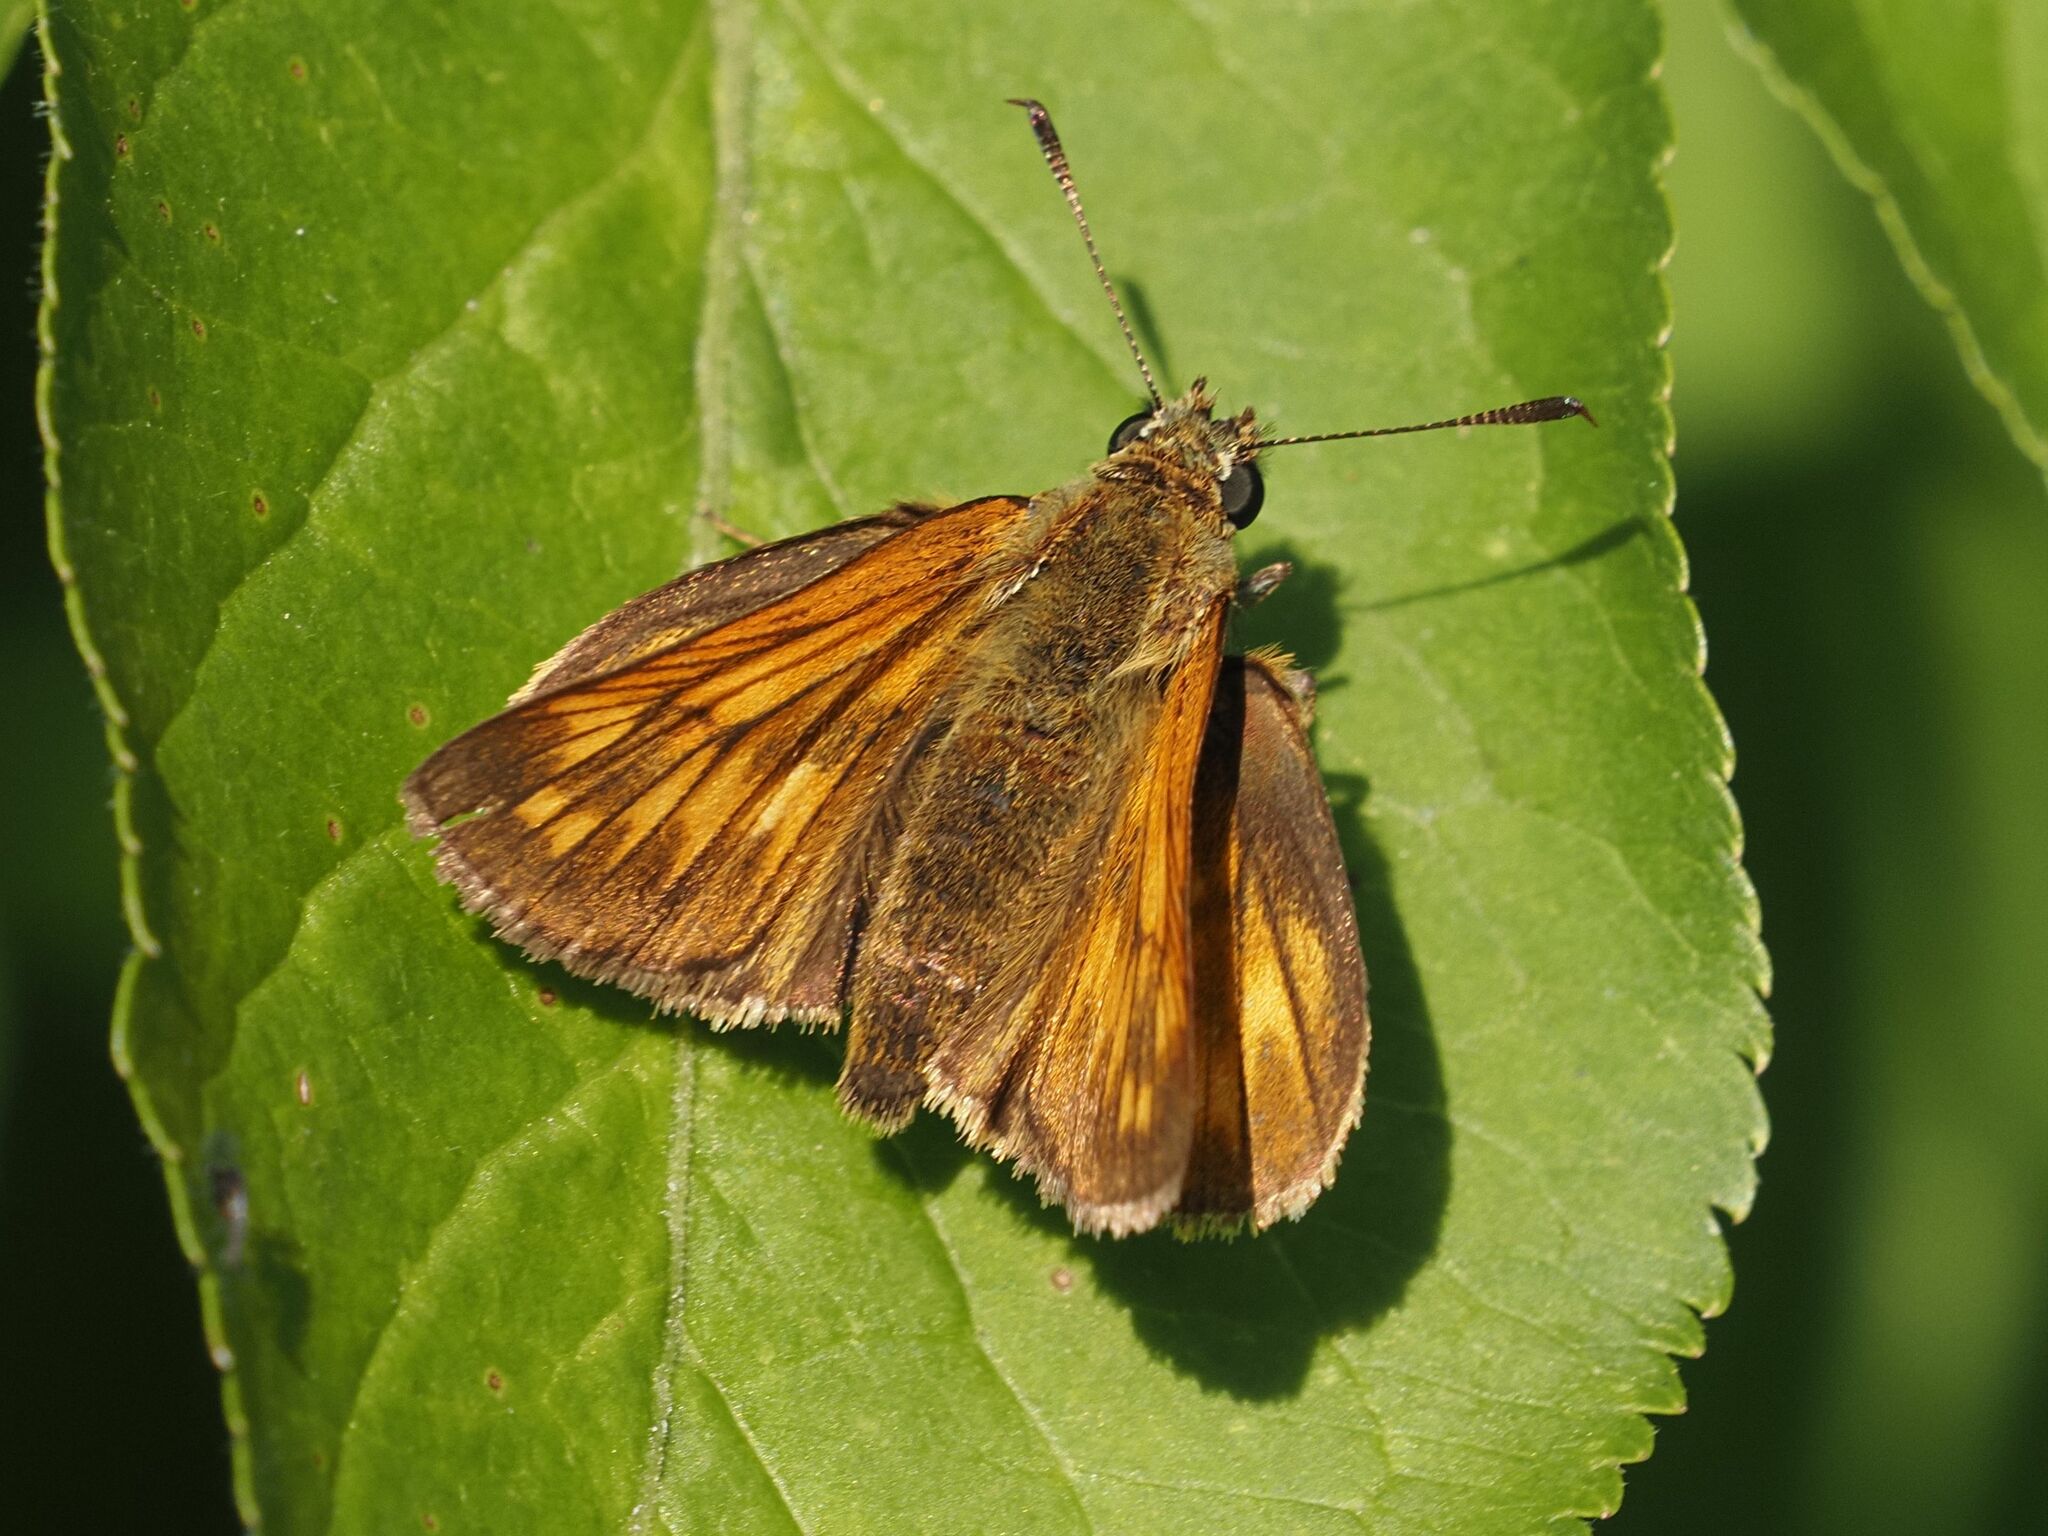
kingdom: Animalia
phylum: Arthropoda
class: Insecta
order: Lepidoptera
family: Hesperiidae
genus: Ochlodes
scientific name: Ochlodes venata
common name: Large skipper
